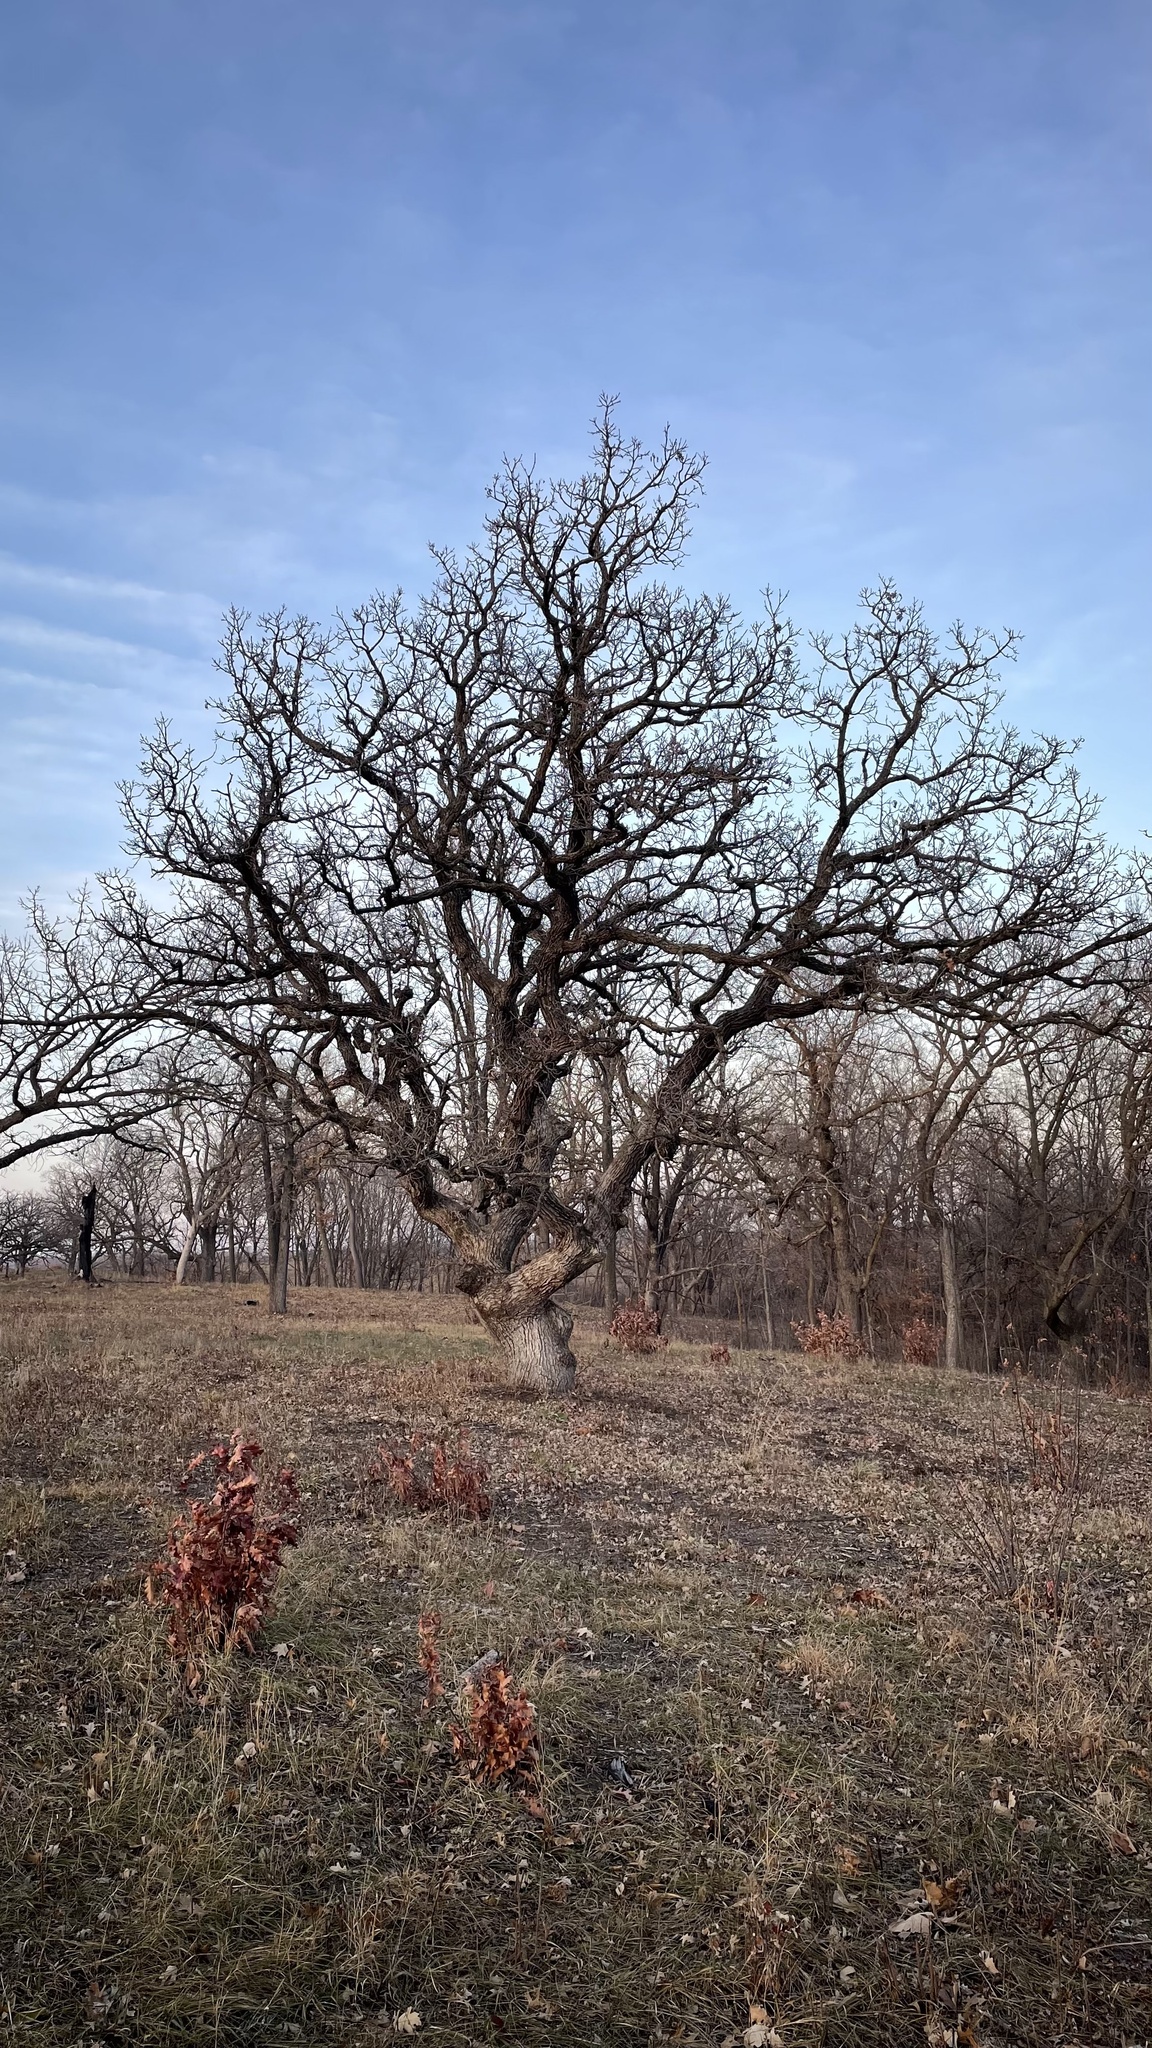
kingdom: Plantae
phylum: Tracheophyta
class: Magnoliopsida
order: Fagales
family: Fagaceae
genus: Quercus
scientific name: Quercus macrocarpa
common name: Bur oak
